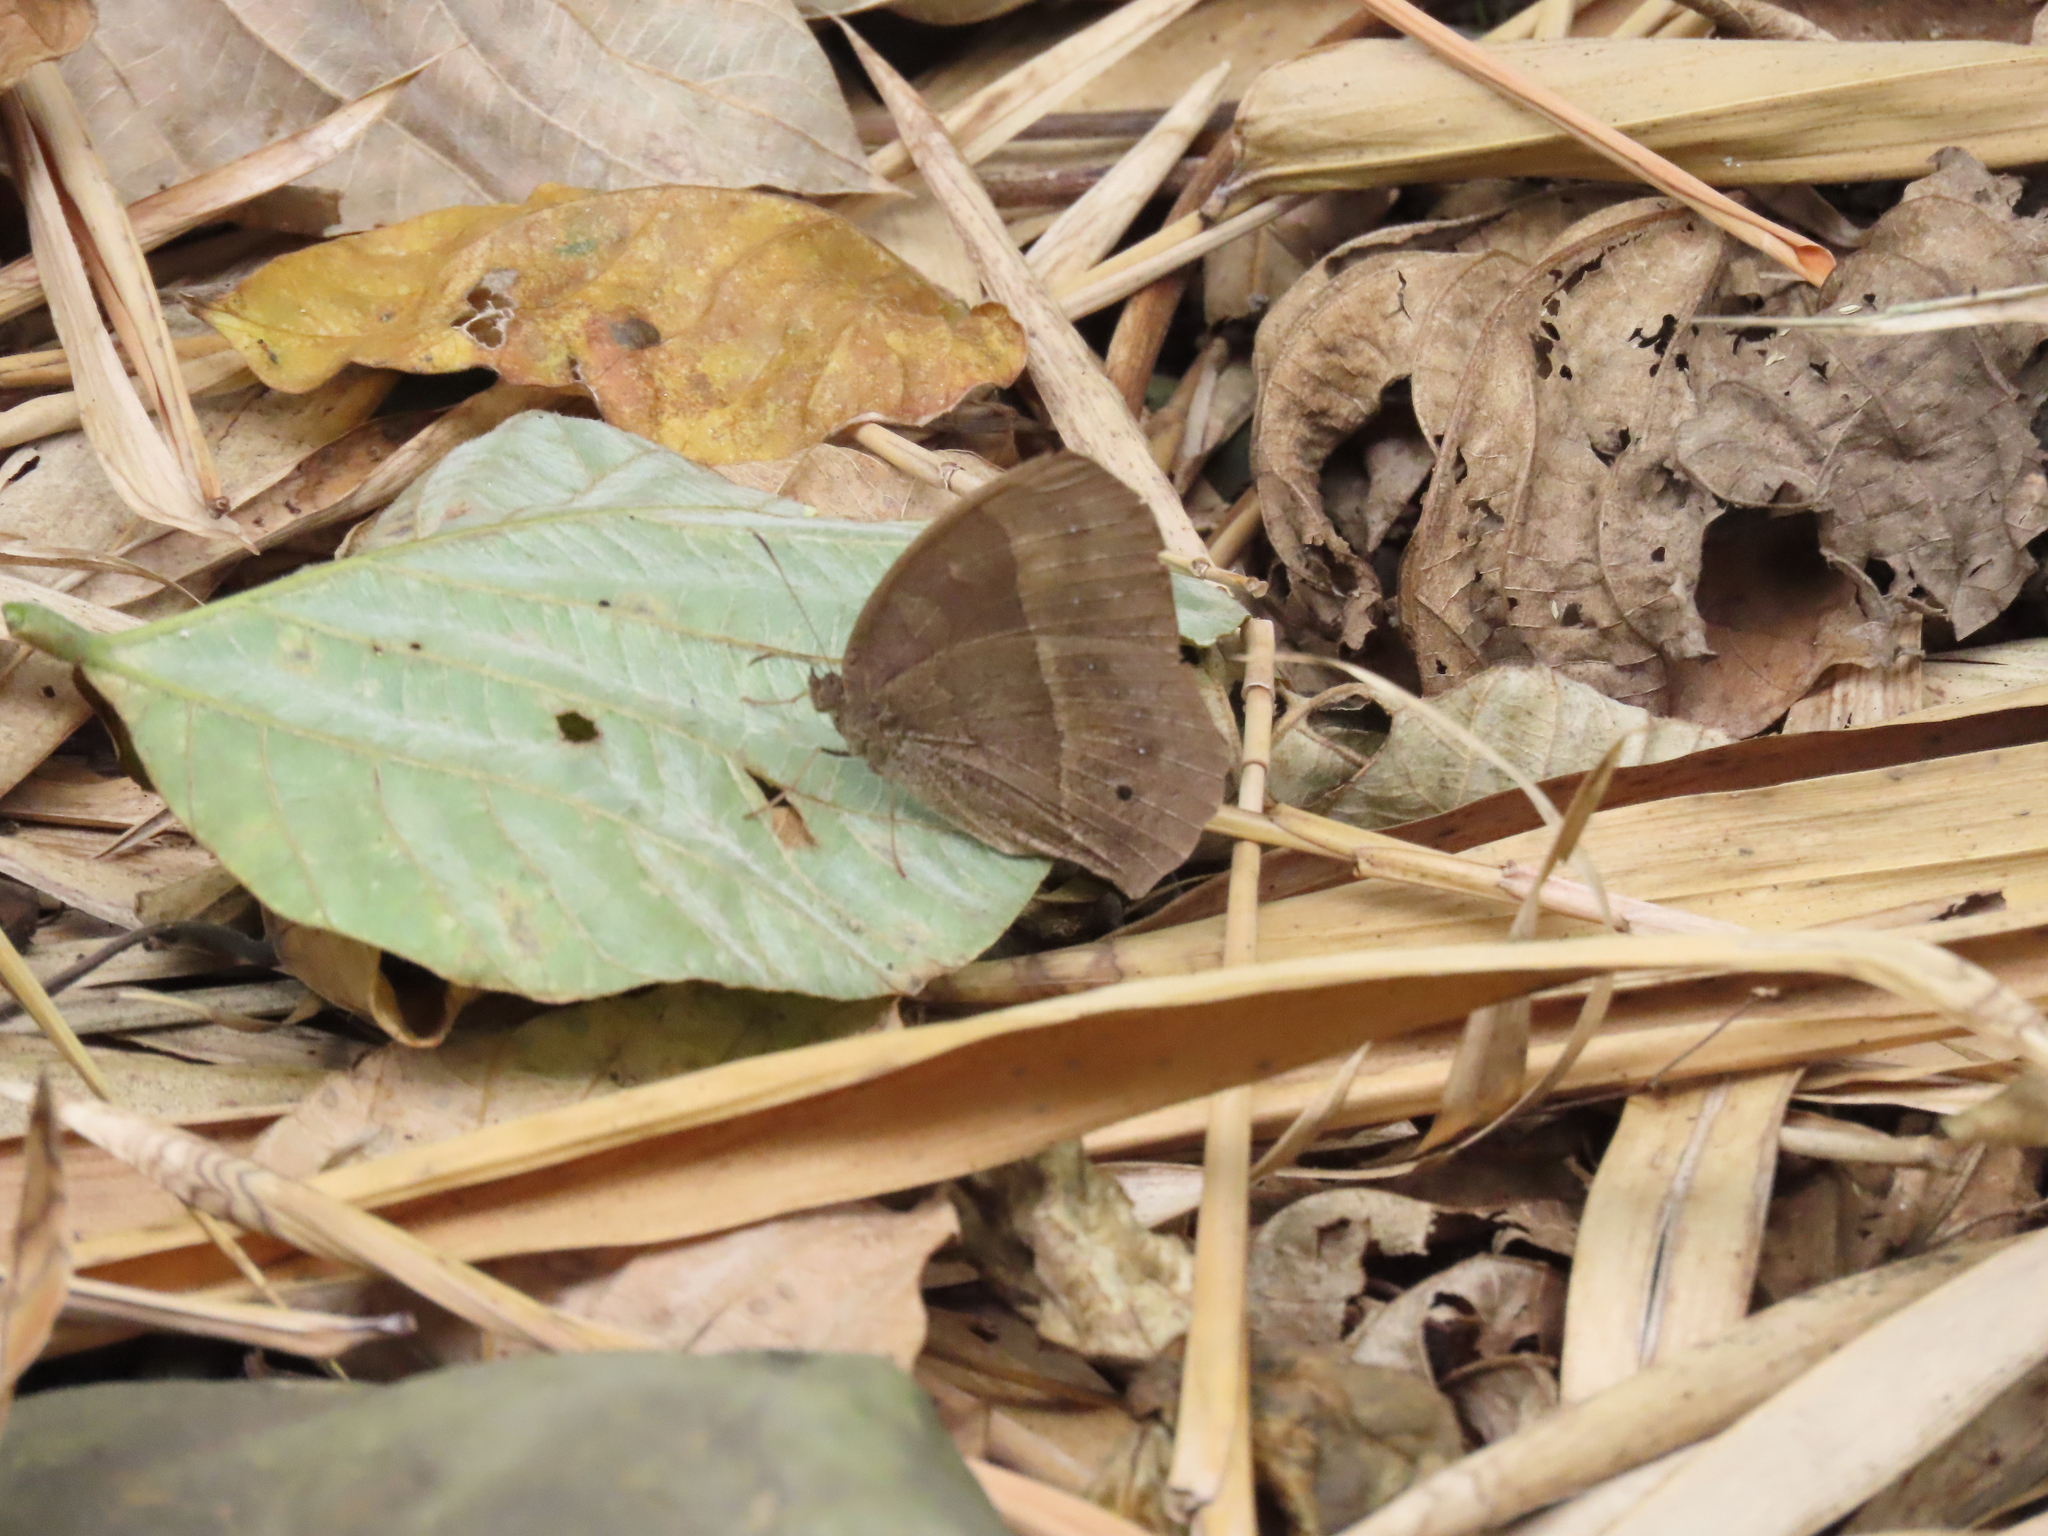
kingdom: Animalia
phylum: Arthropoda
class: Insecta
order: Lepidoptera
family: Nymphalidae
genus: Mycalesis
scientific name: Mycalesis horsfieldii
